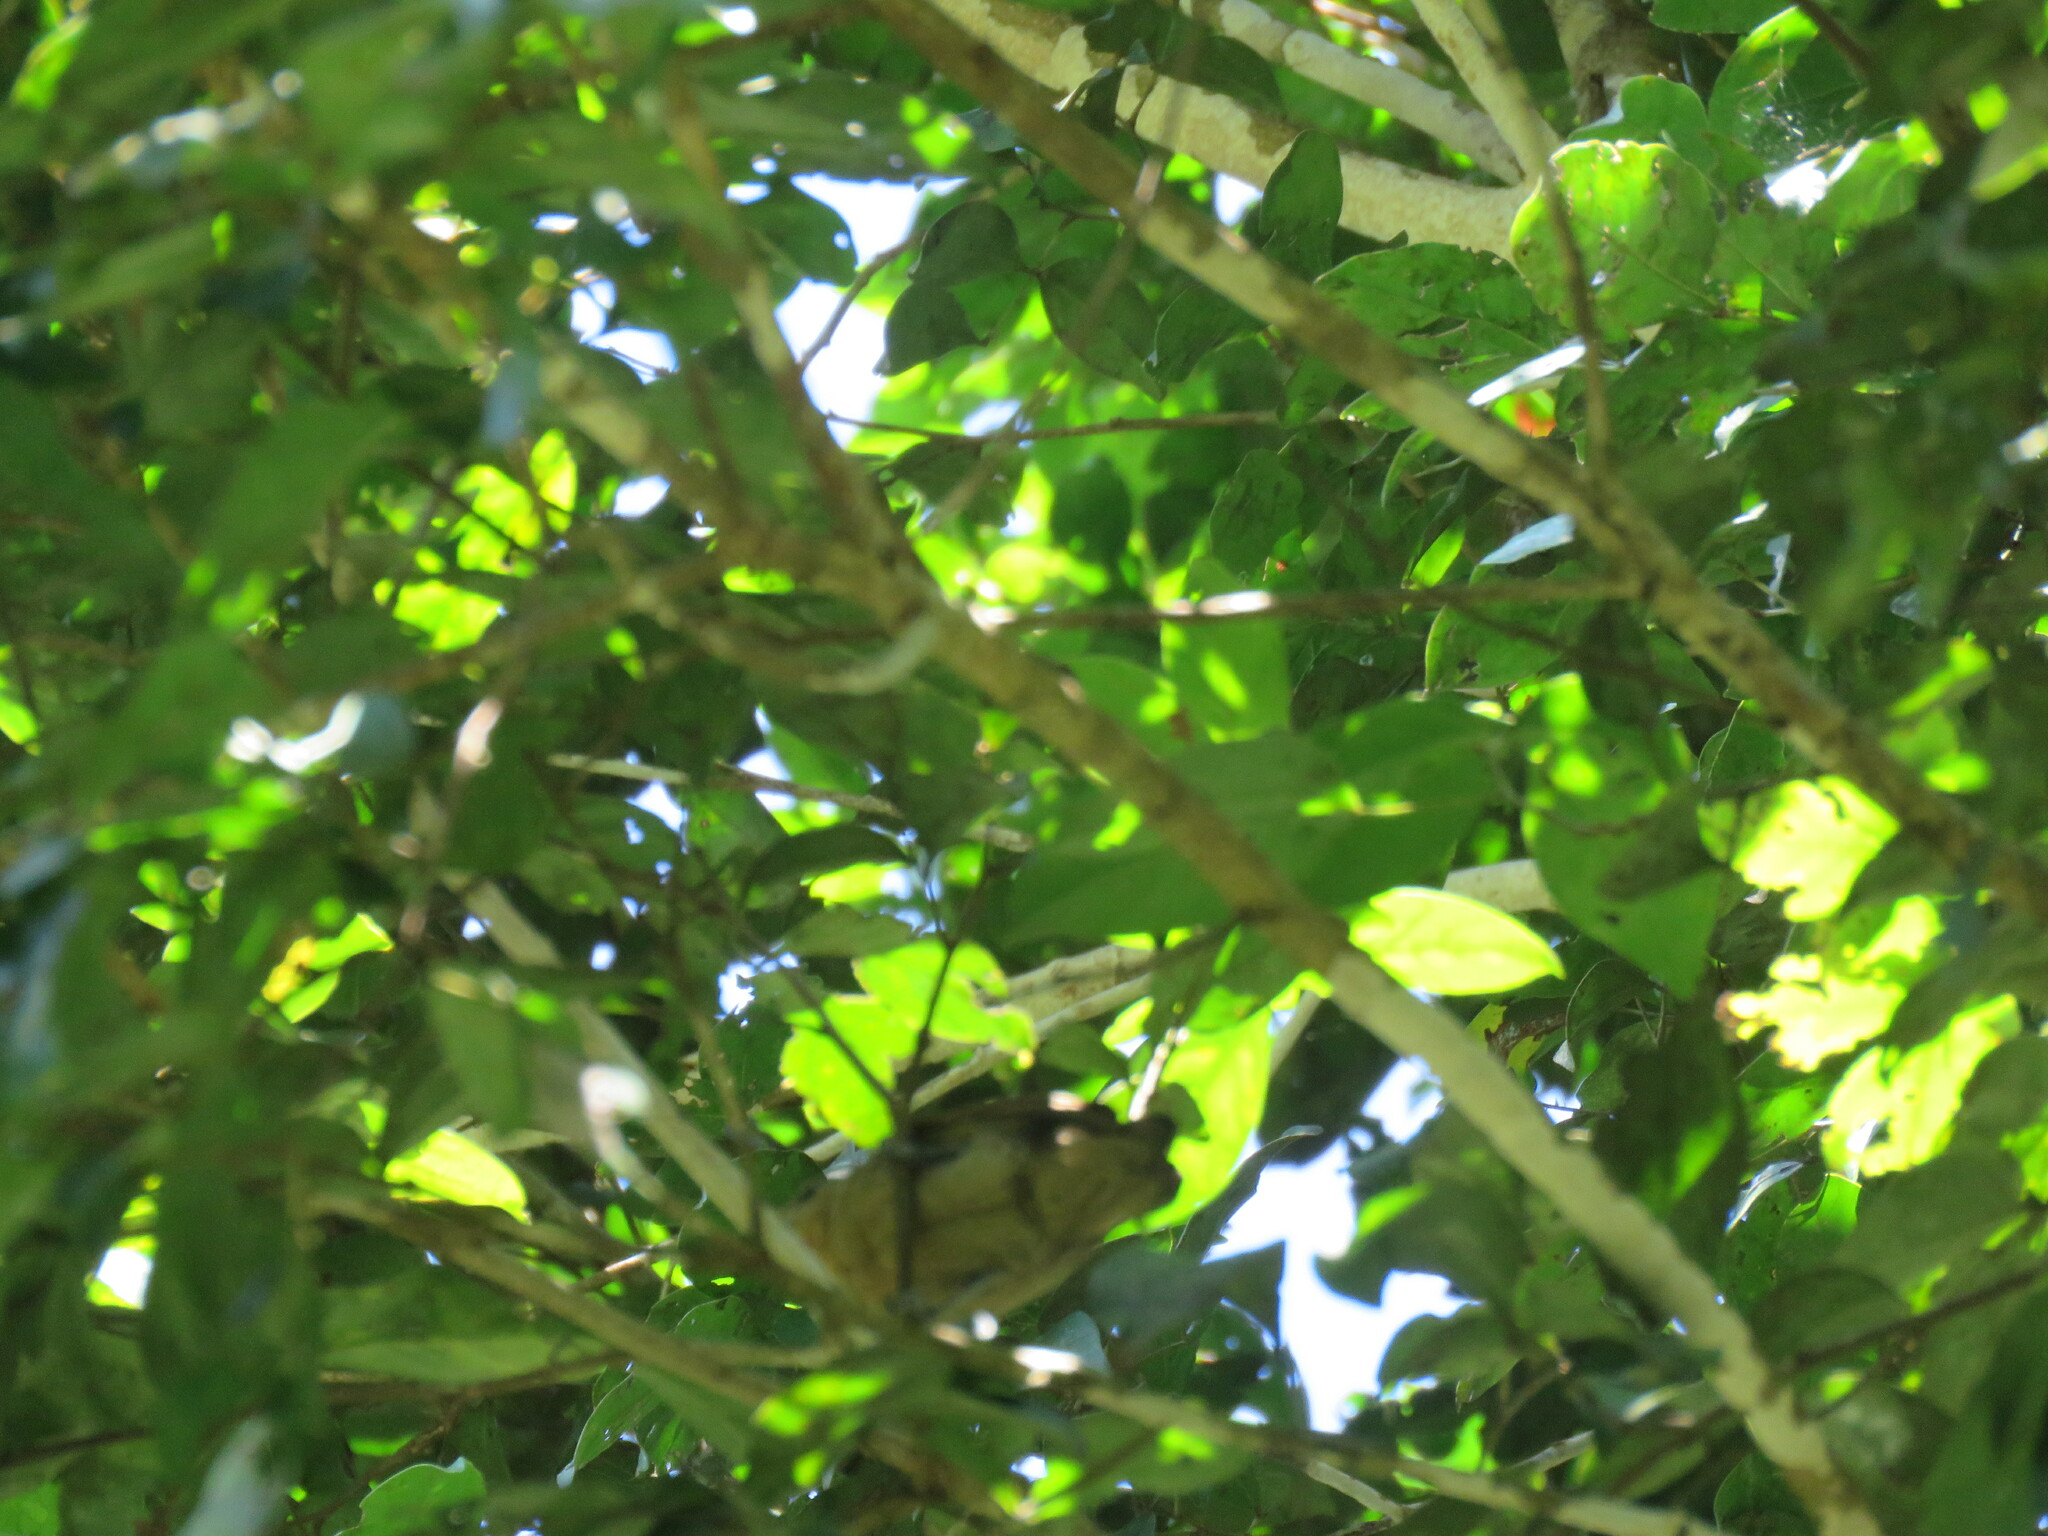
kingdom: Animalia
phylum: Chordata
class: Aves
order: Passeriformes
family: Thamnophilidae
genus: Myrmotherula
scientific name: Myrmotherula menetriesii
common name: Grey antwren
